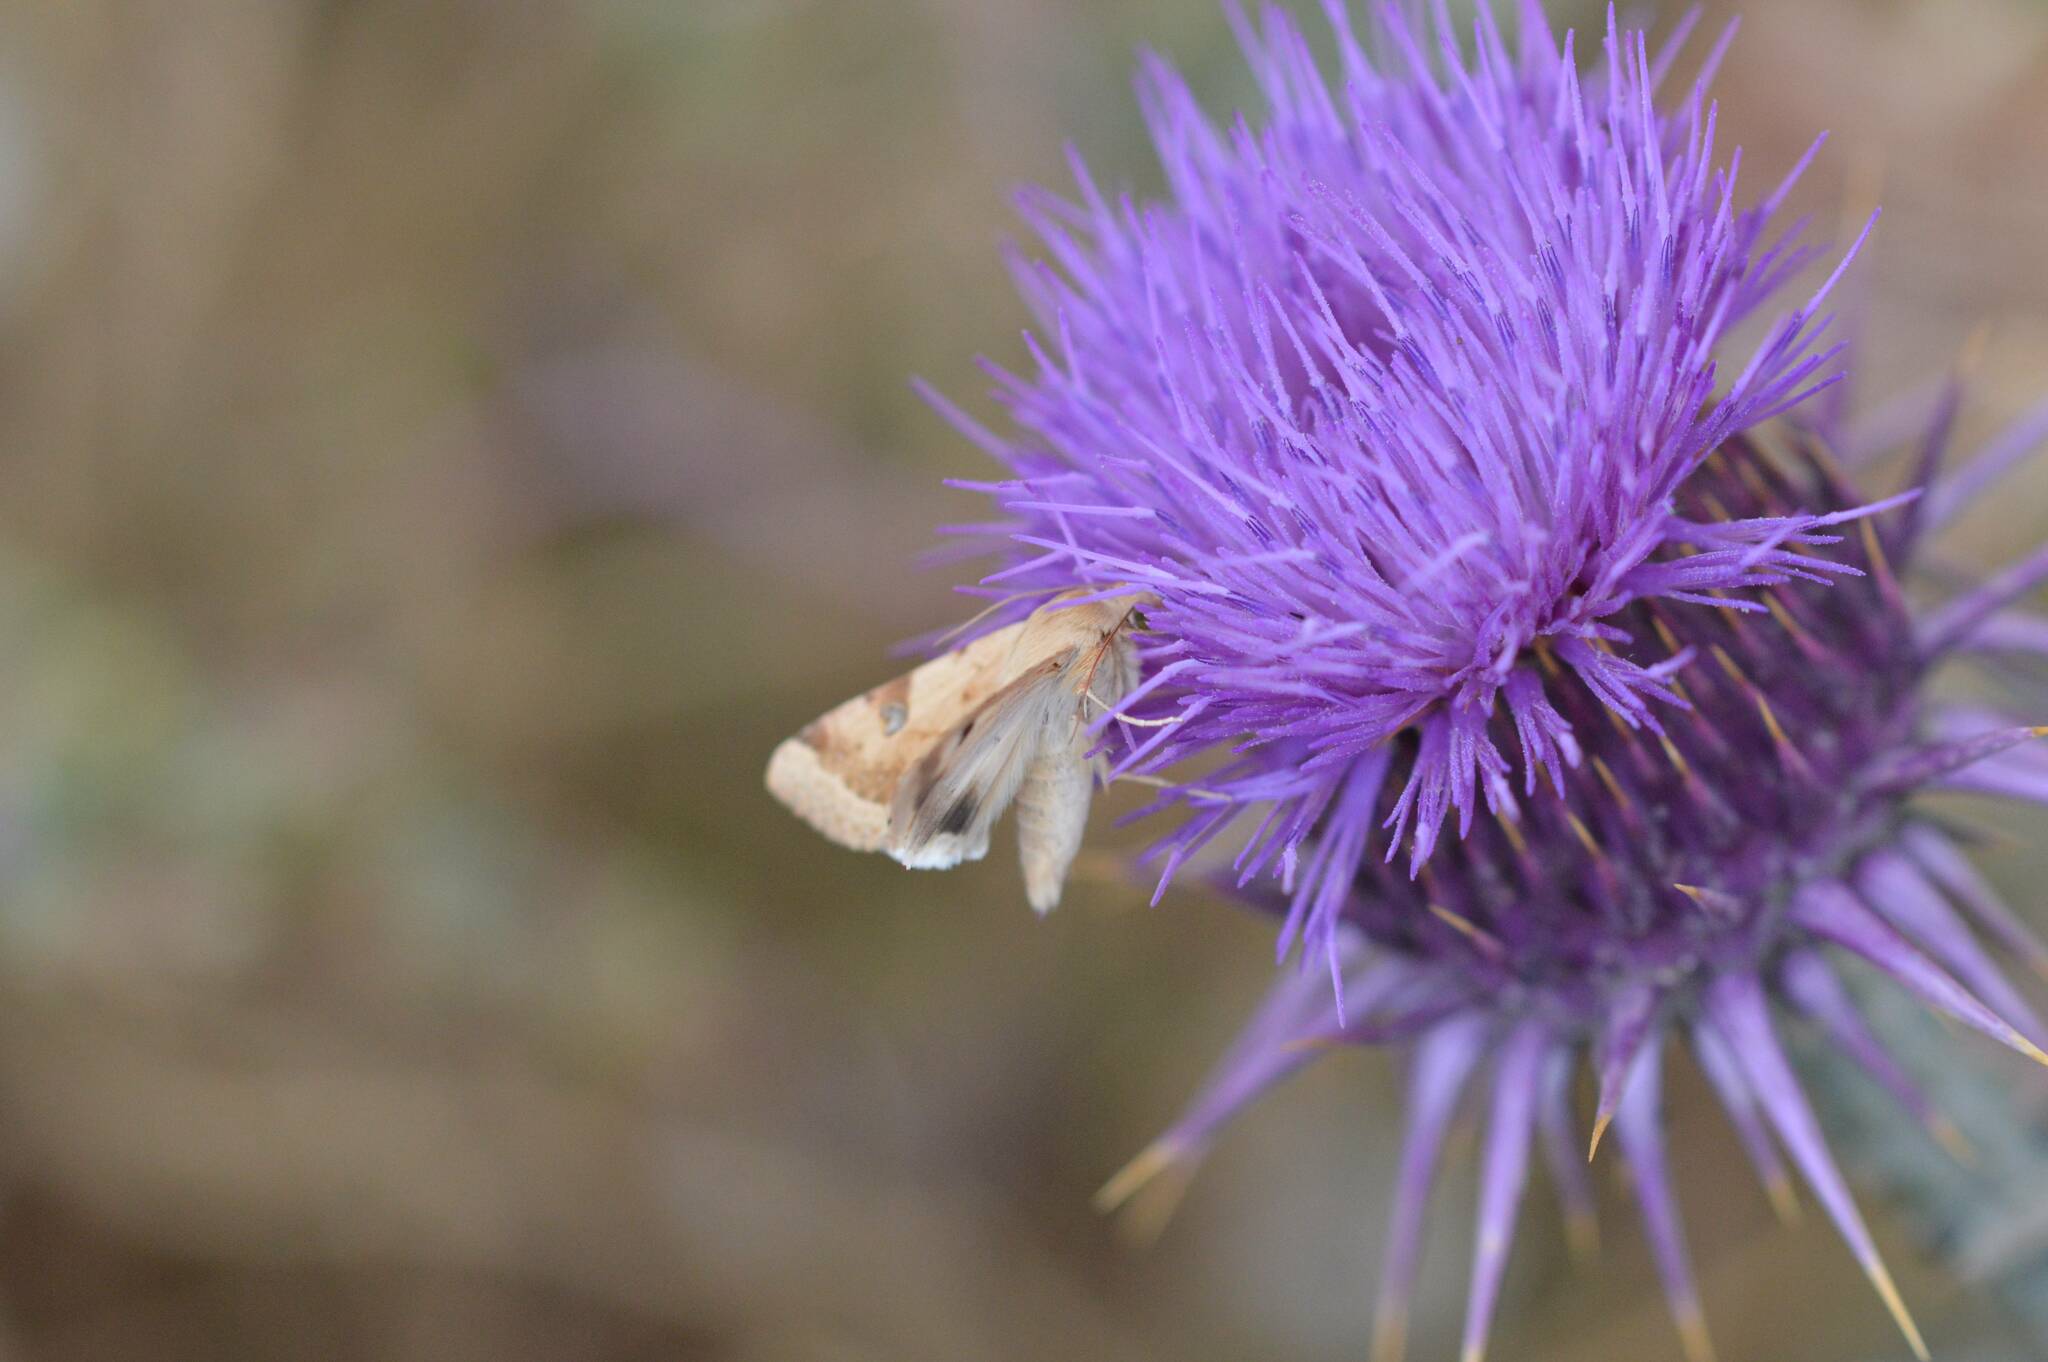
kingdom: Animalia
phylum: Arthropoda
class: Insecta
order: Lepidoptera
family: Noctuidae
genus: Heliothis
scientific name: Heliothis peltigera
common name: Bordered straw
